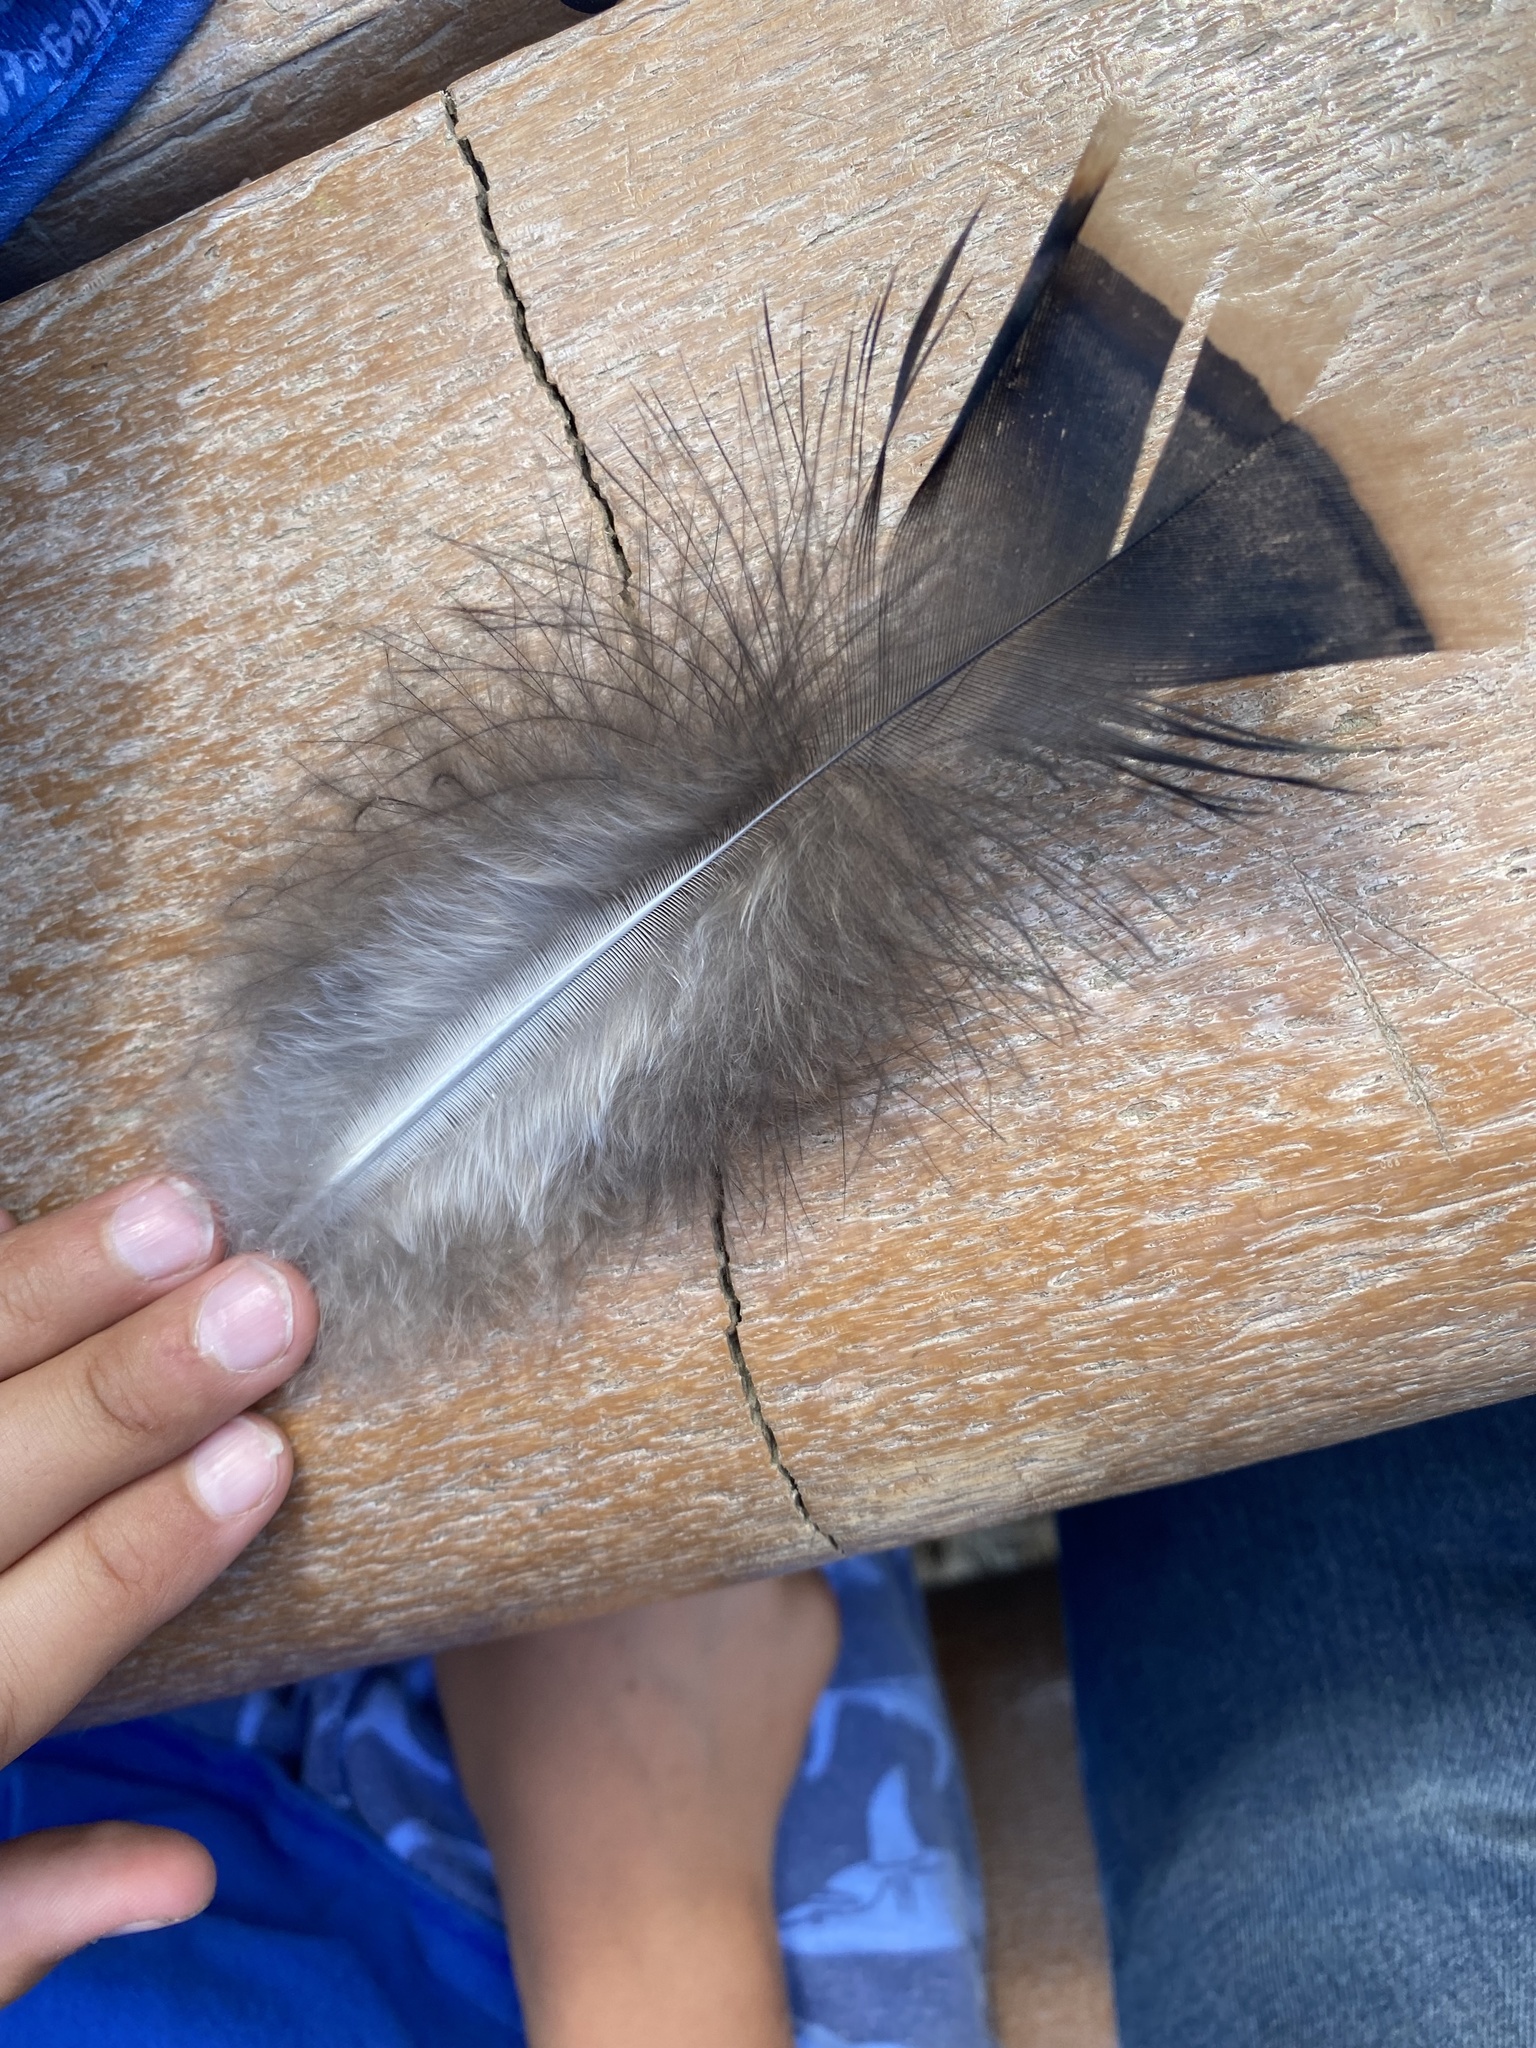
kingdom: Animalia
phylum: Chordata
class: Aves
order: Galliformes
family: Phasianidae
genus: Meleagris
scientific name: Meleagris gallopavo
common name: Wild turkey
